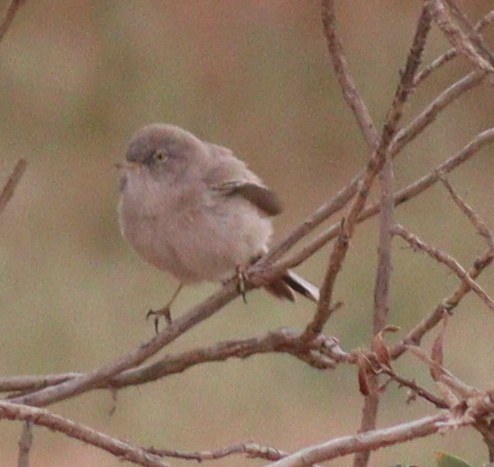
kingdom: Animalia
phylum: Chordata
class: Aves
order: Passeriformes
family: Sylviidae
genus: Sylvia
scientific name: Sylvia nana
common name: Asian desert warbler
